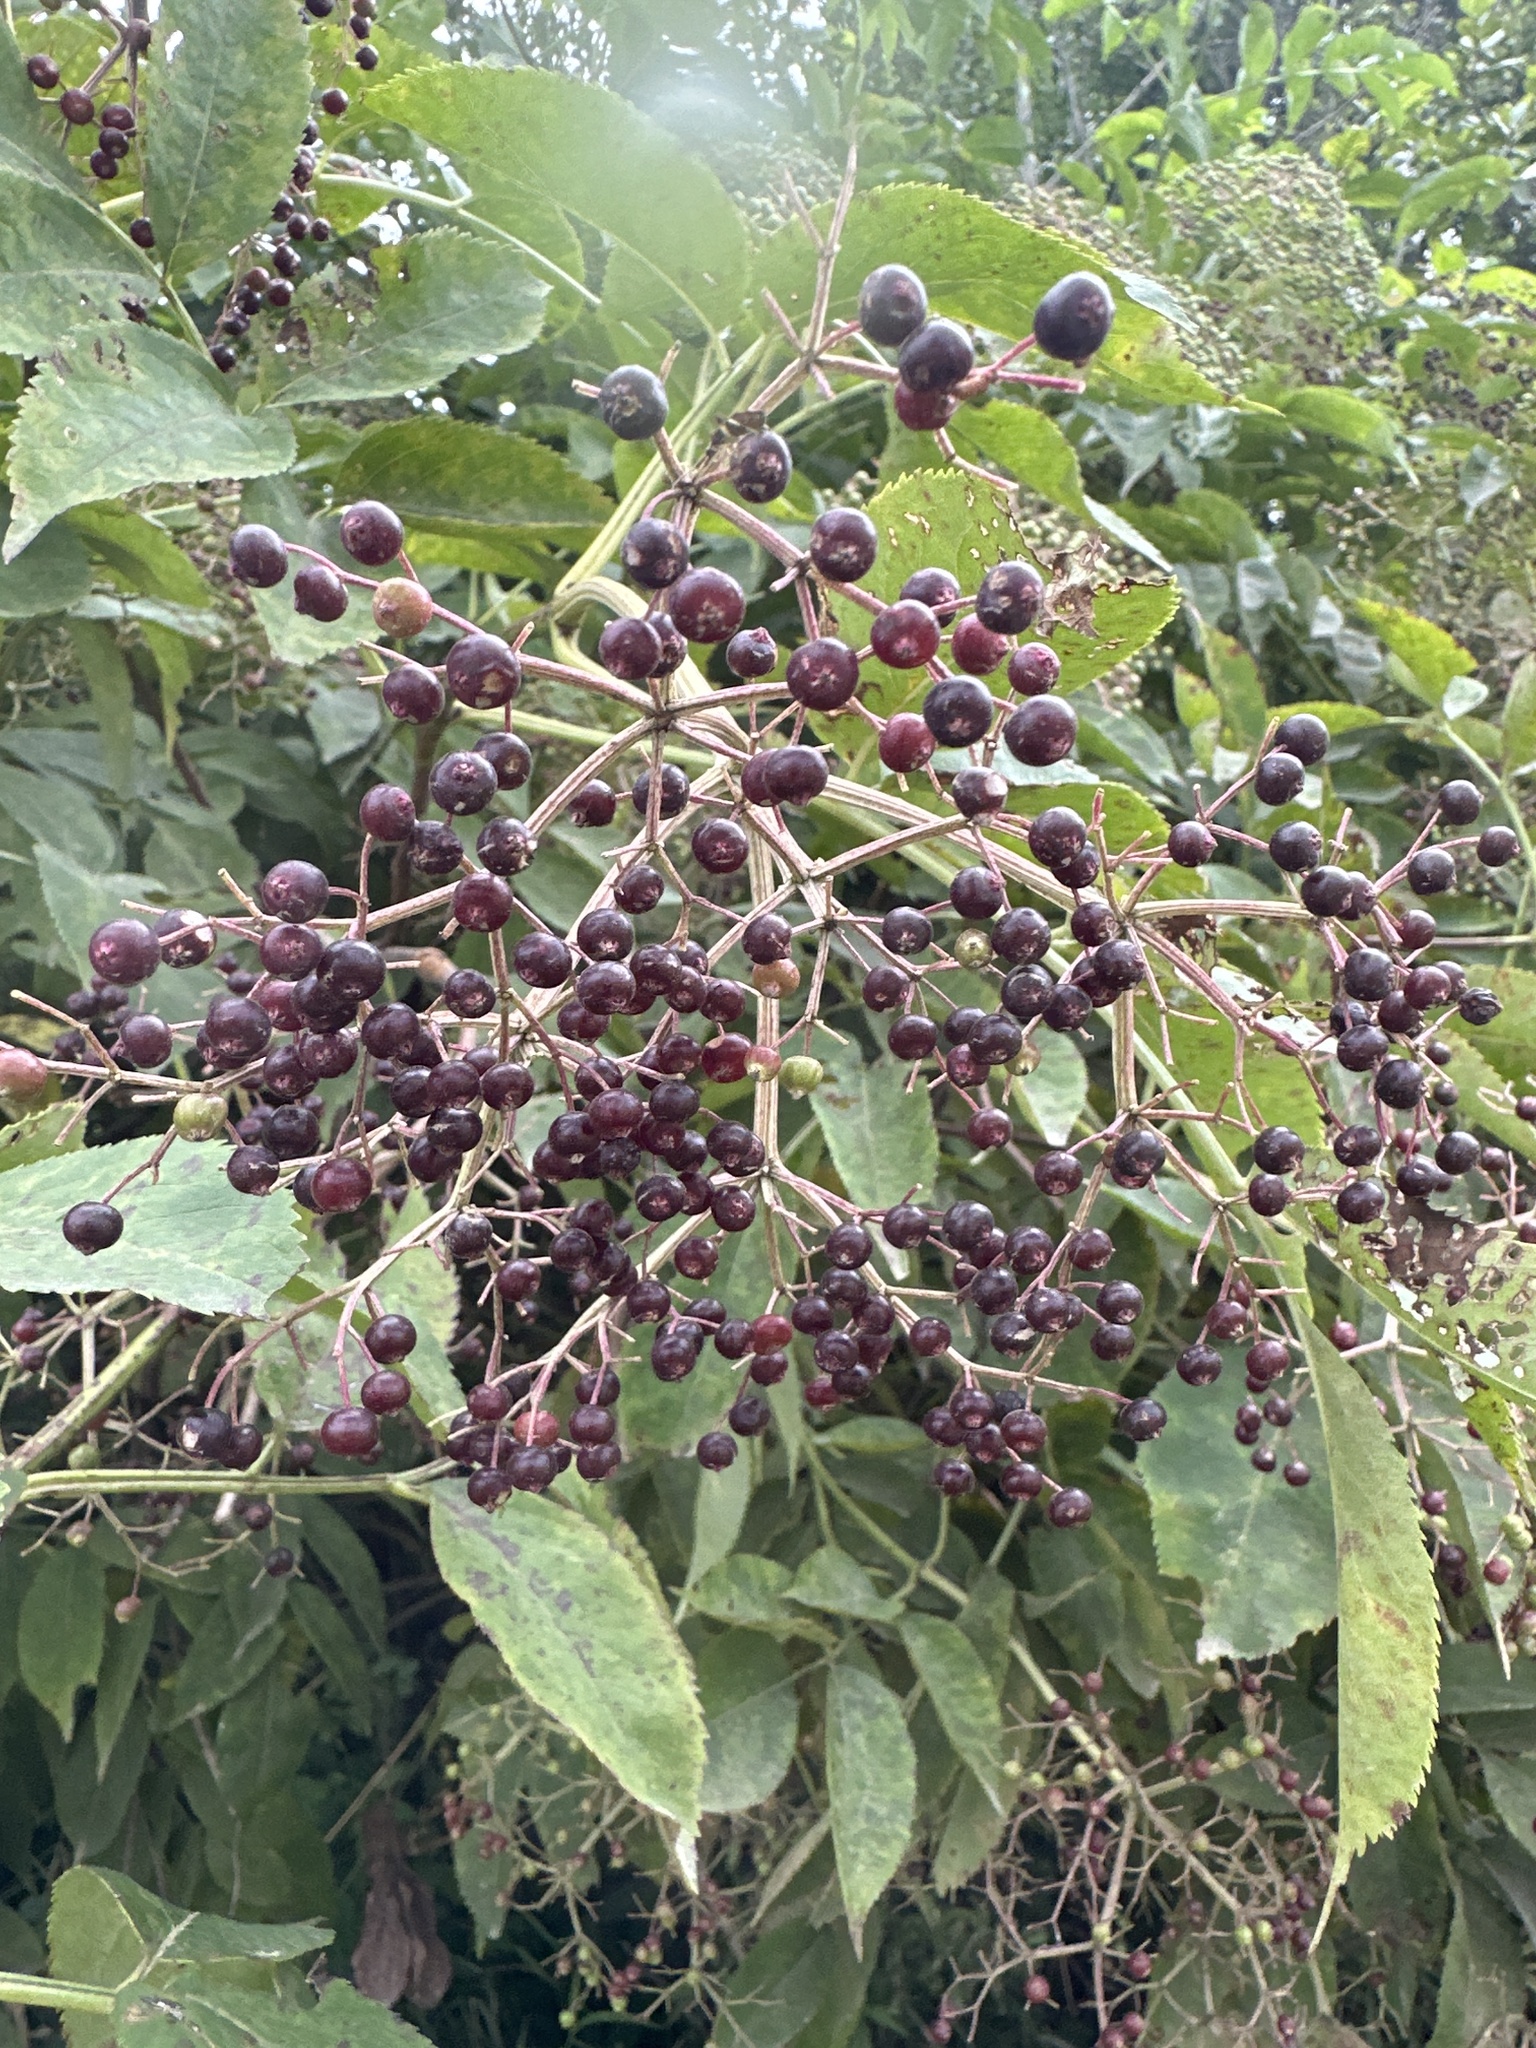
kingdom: Plantae
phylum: Tracheophyta
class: Magnoliopsida
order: Dipsacales
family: Viburnaceae
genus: Sambucus
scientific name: Sambucus canadensis
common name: American elder
